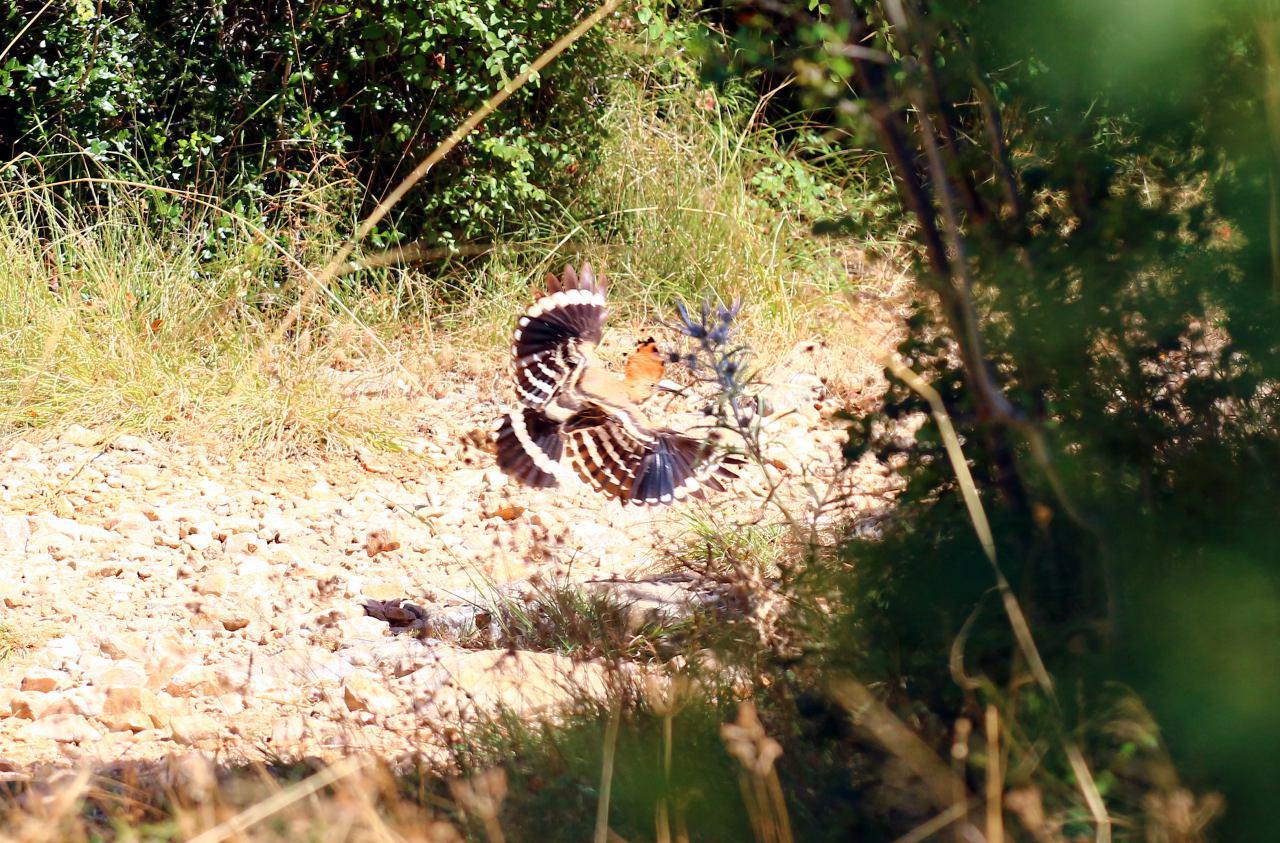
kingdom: Animalia
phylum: Chordata
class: Aves
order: Bucerotiformes
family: Upupidae
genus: Upupa
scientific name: Upupa epops
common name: Eurasian hoopoe
